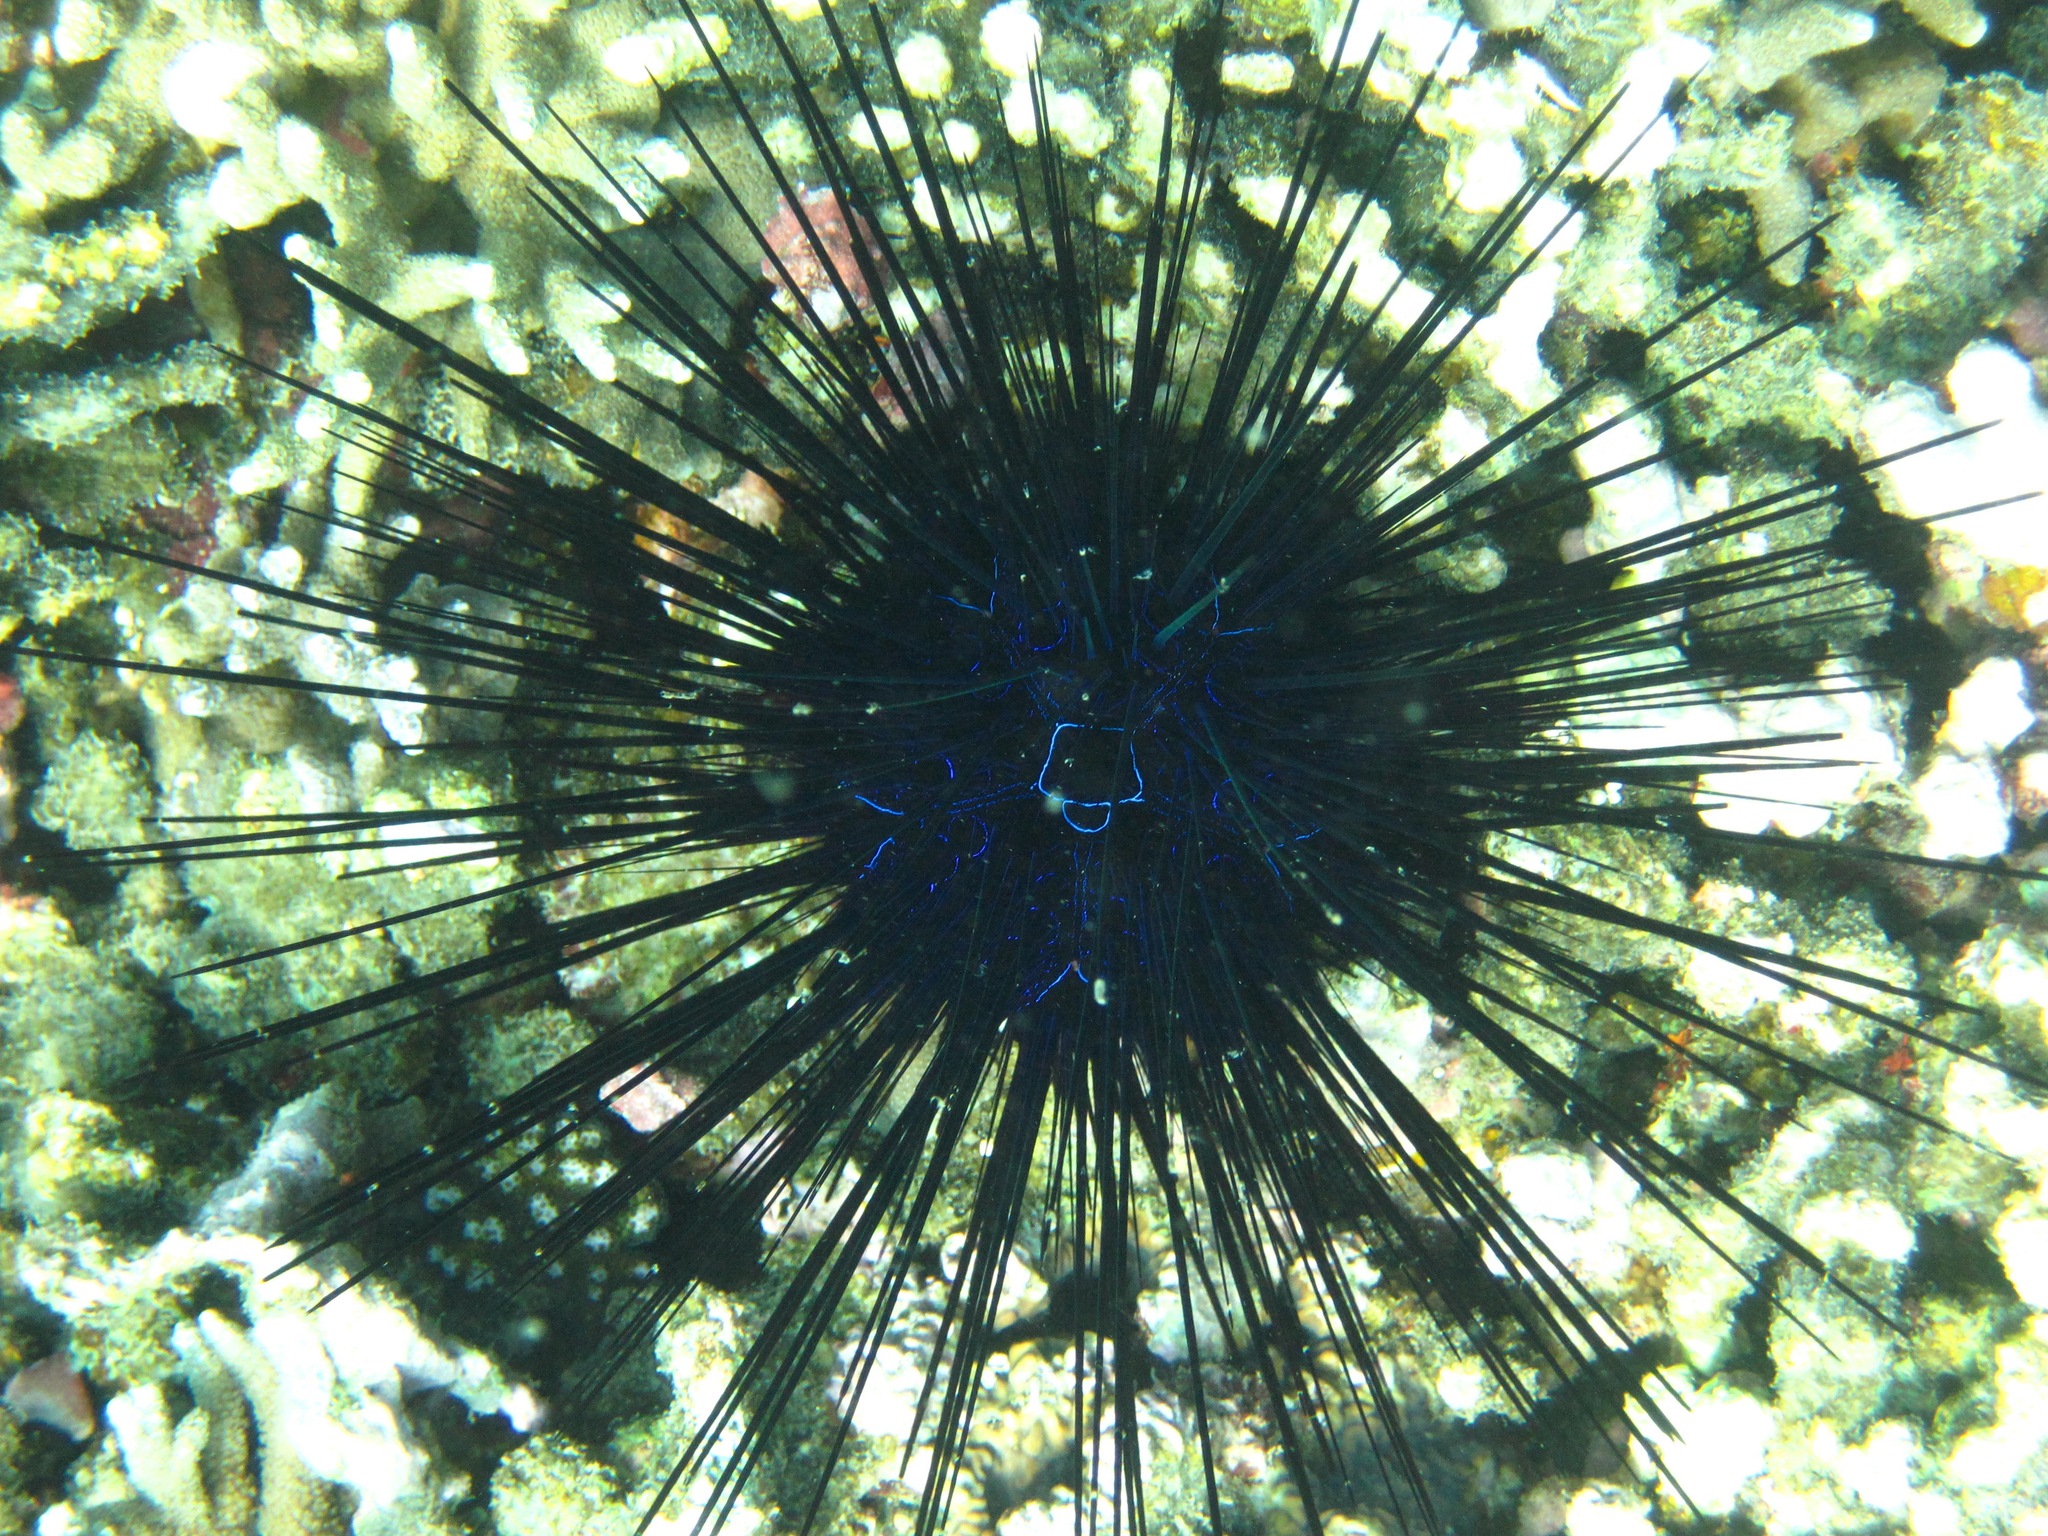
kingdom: Animalia
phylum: Echinodermata
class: Echinoidea
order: Diadematoida
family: Diadematidae
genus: Diadema
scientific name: Diadema savignyi
